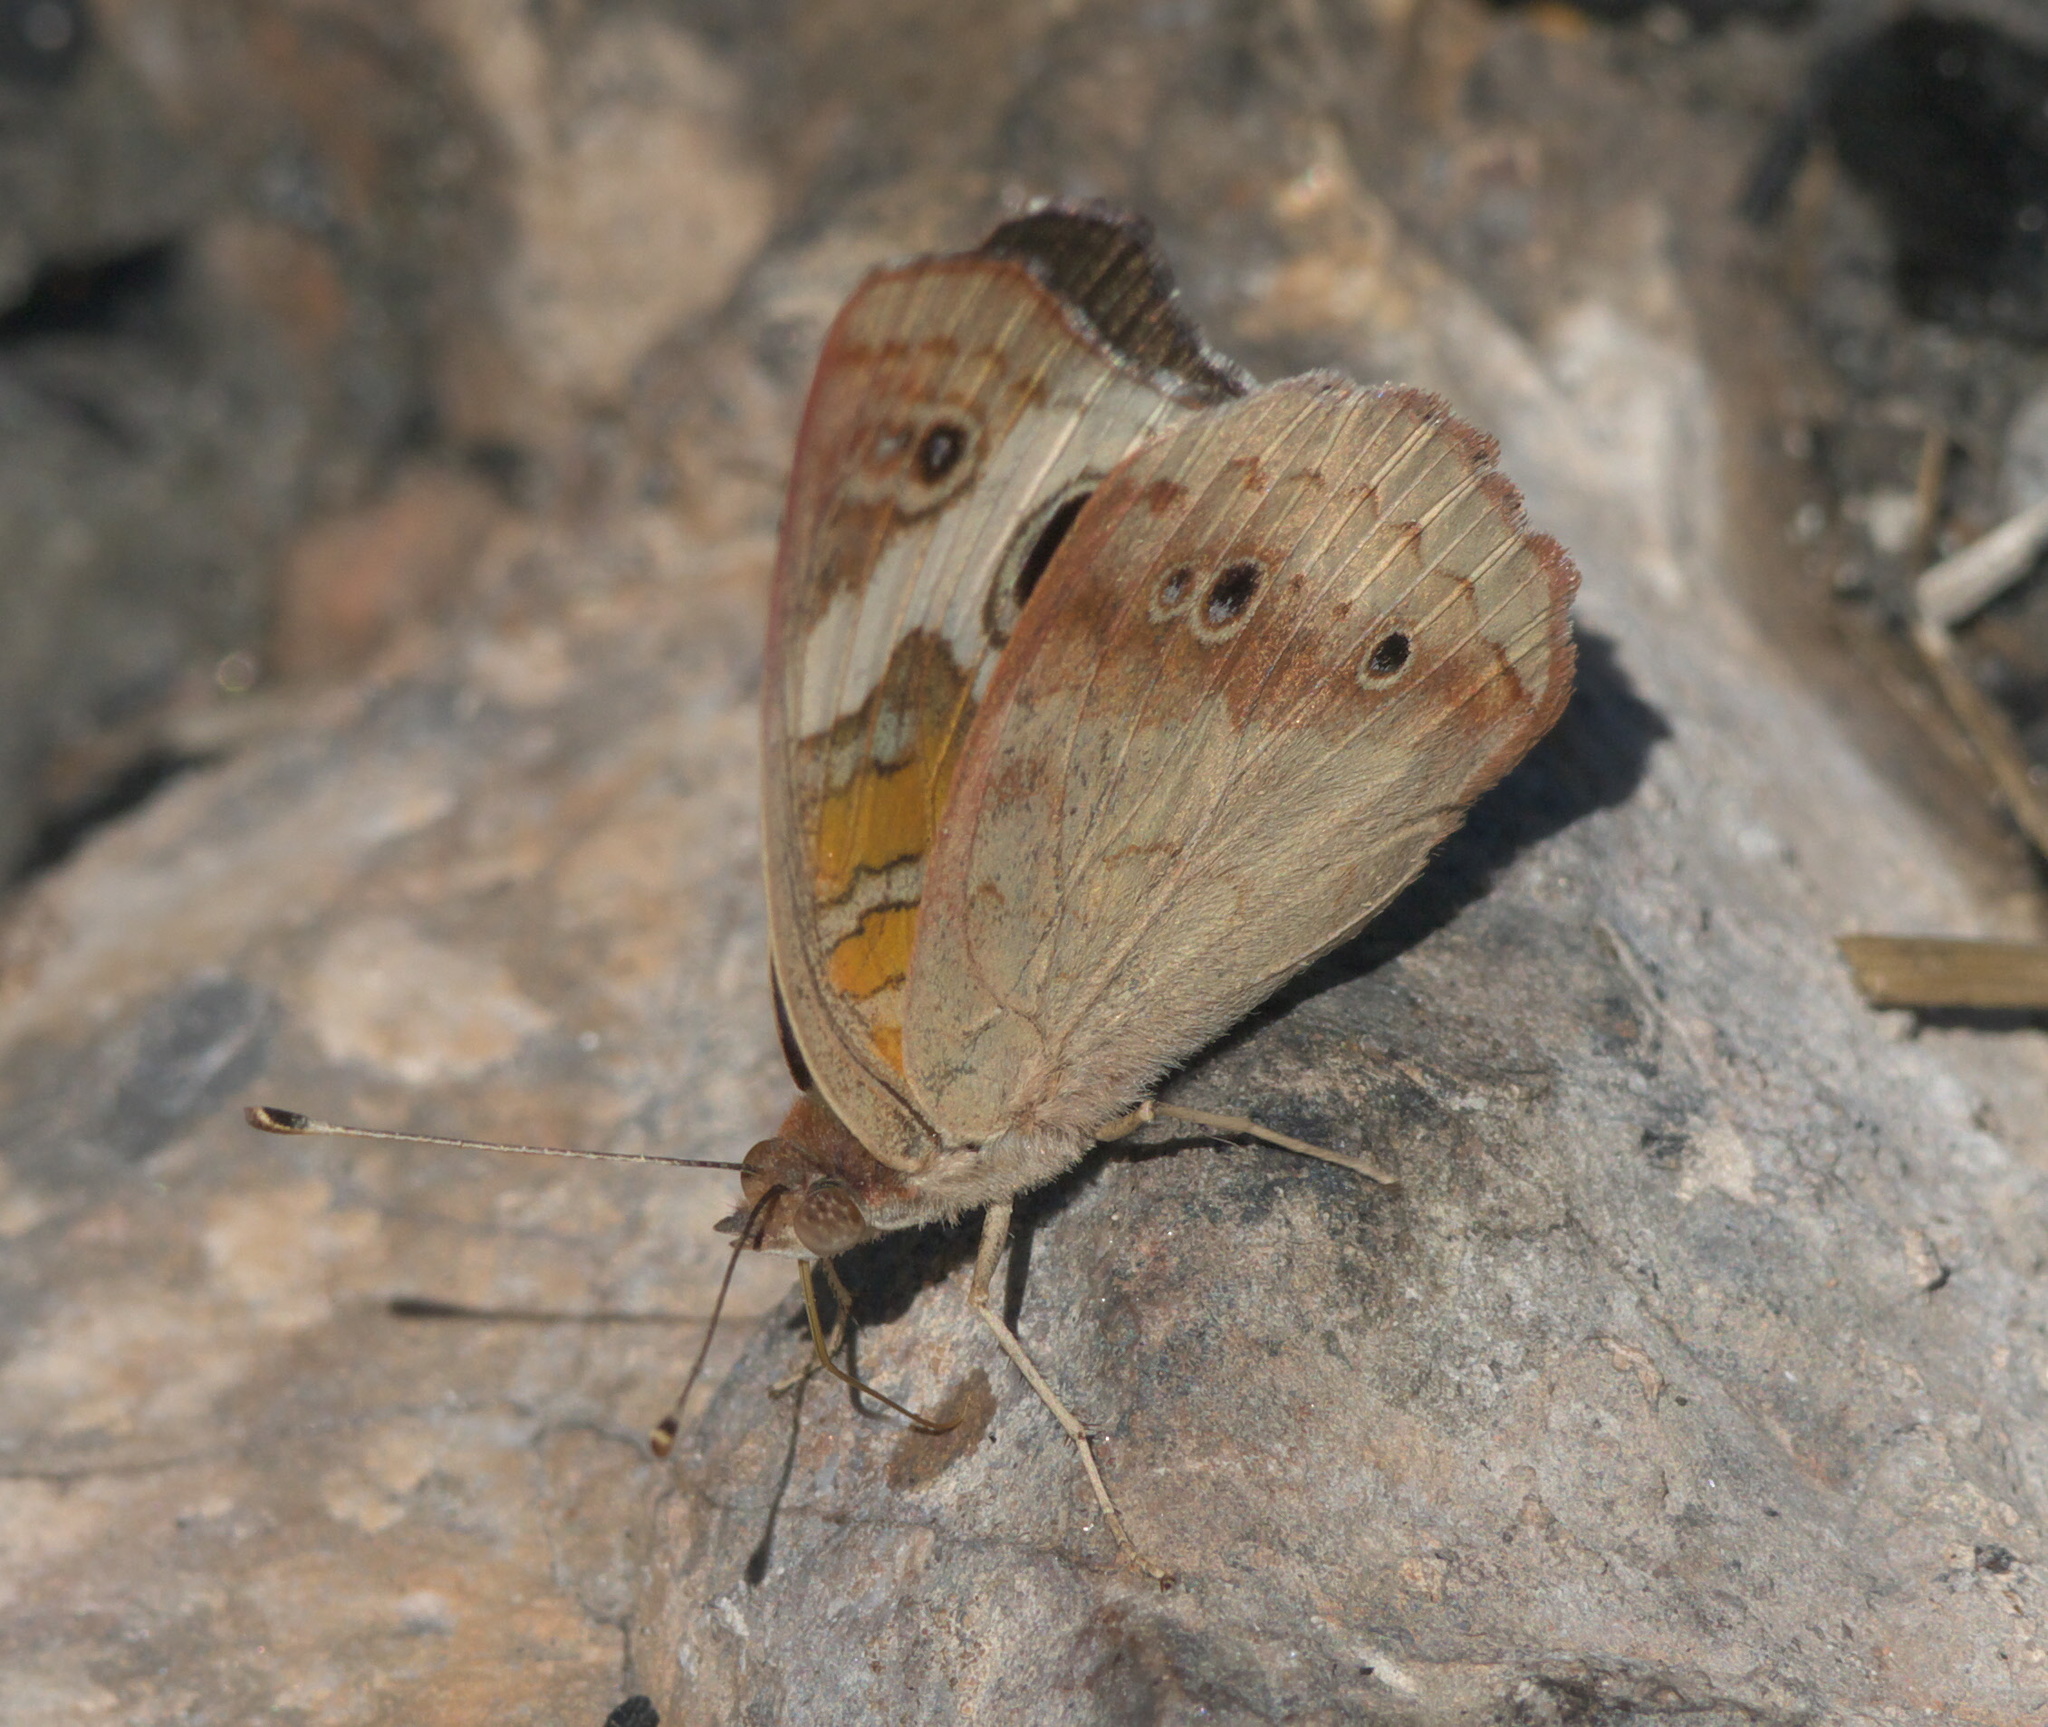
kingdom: Animalia
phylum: Arthropoda
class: Insecta
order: Lepidoptera
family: Nymphalidae
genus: Junonia
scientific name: Junonia coenia
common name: Common buckeye
